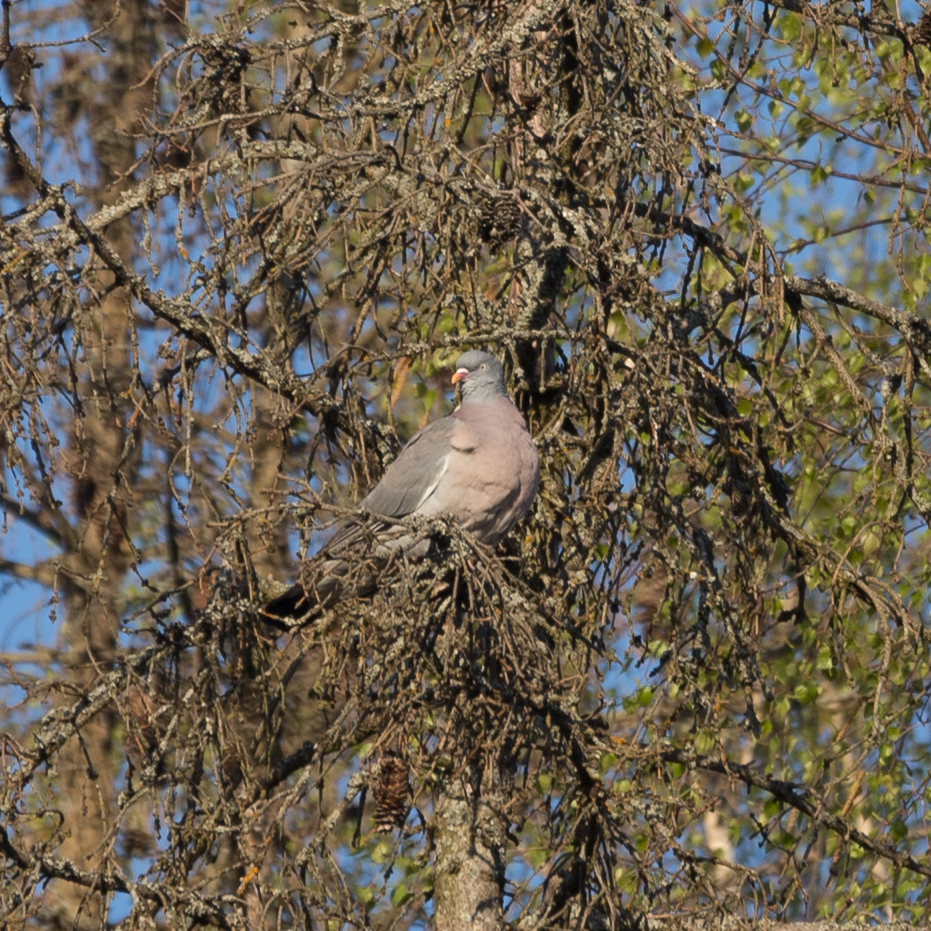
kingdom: Animalia
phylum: Chordata
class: Aves
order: Columbiformes
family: Columbidae
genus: Columba
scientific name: Columba palumbus
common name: Common wood pigeon
